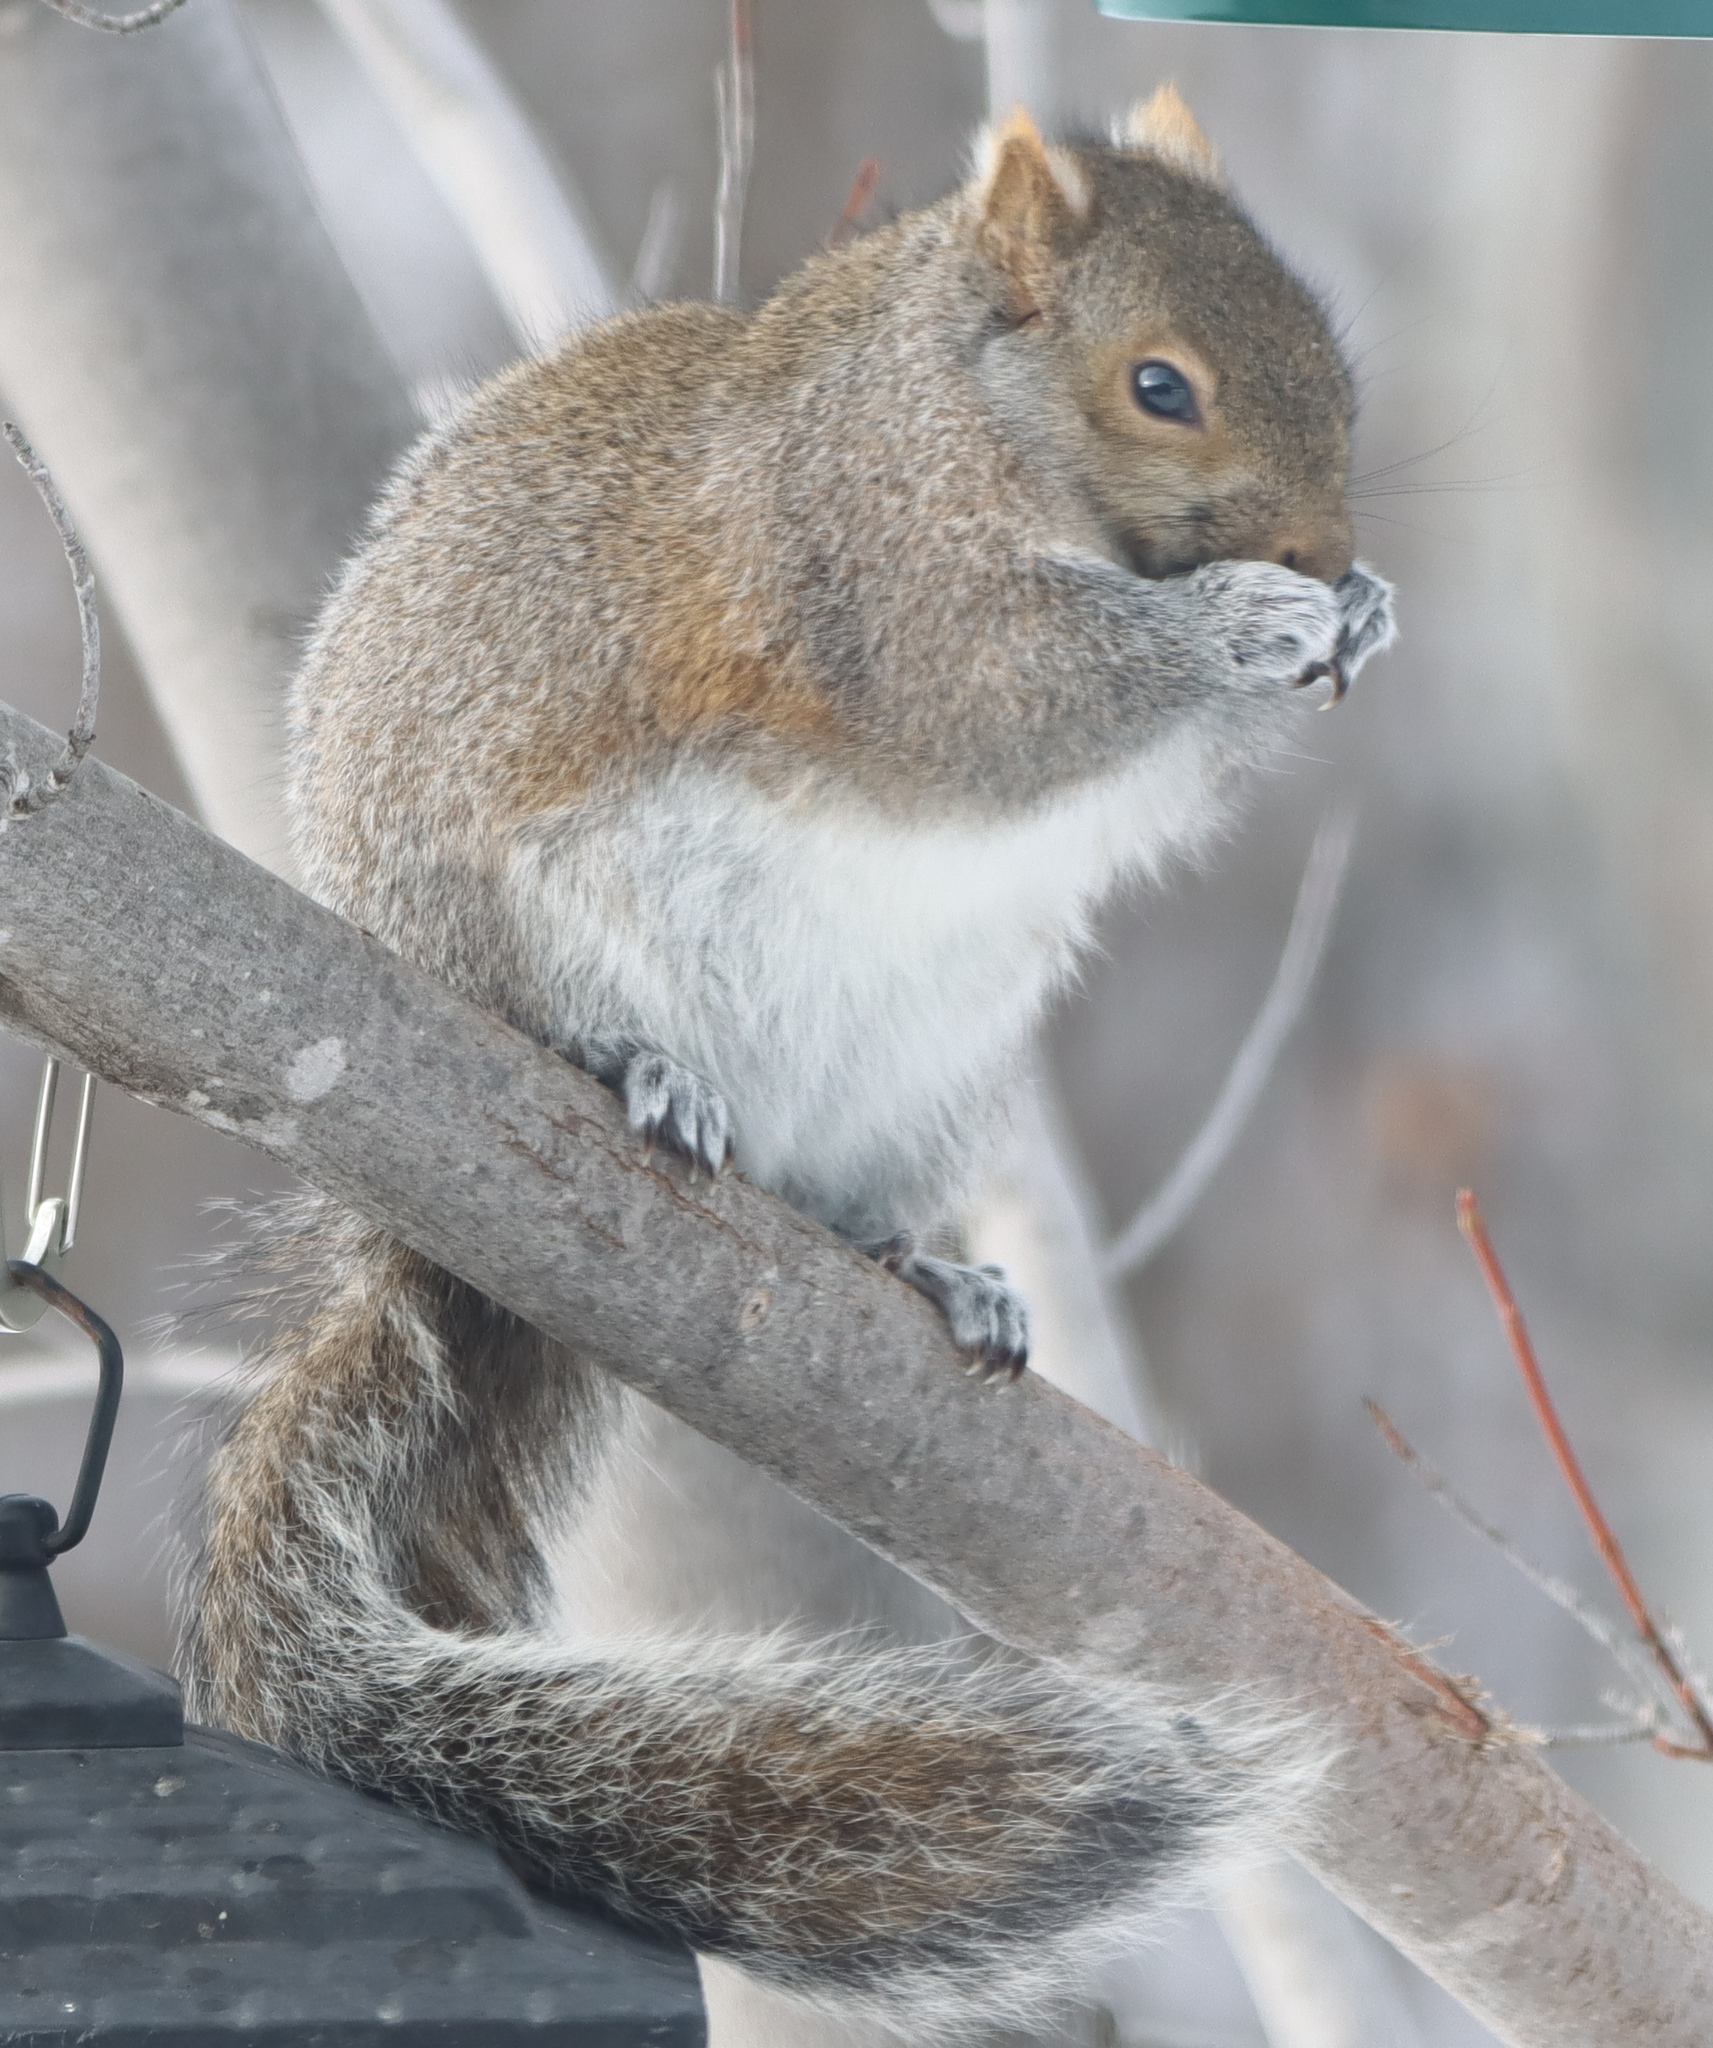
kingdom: Animalia
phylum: Chordata
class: Mammalia
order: Rodentia
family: Sciuridae
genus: Sciurus
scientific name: Sciurus carolinensis
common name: Eastern gray squirrel
